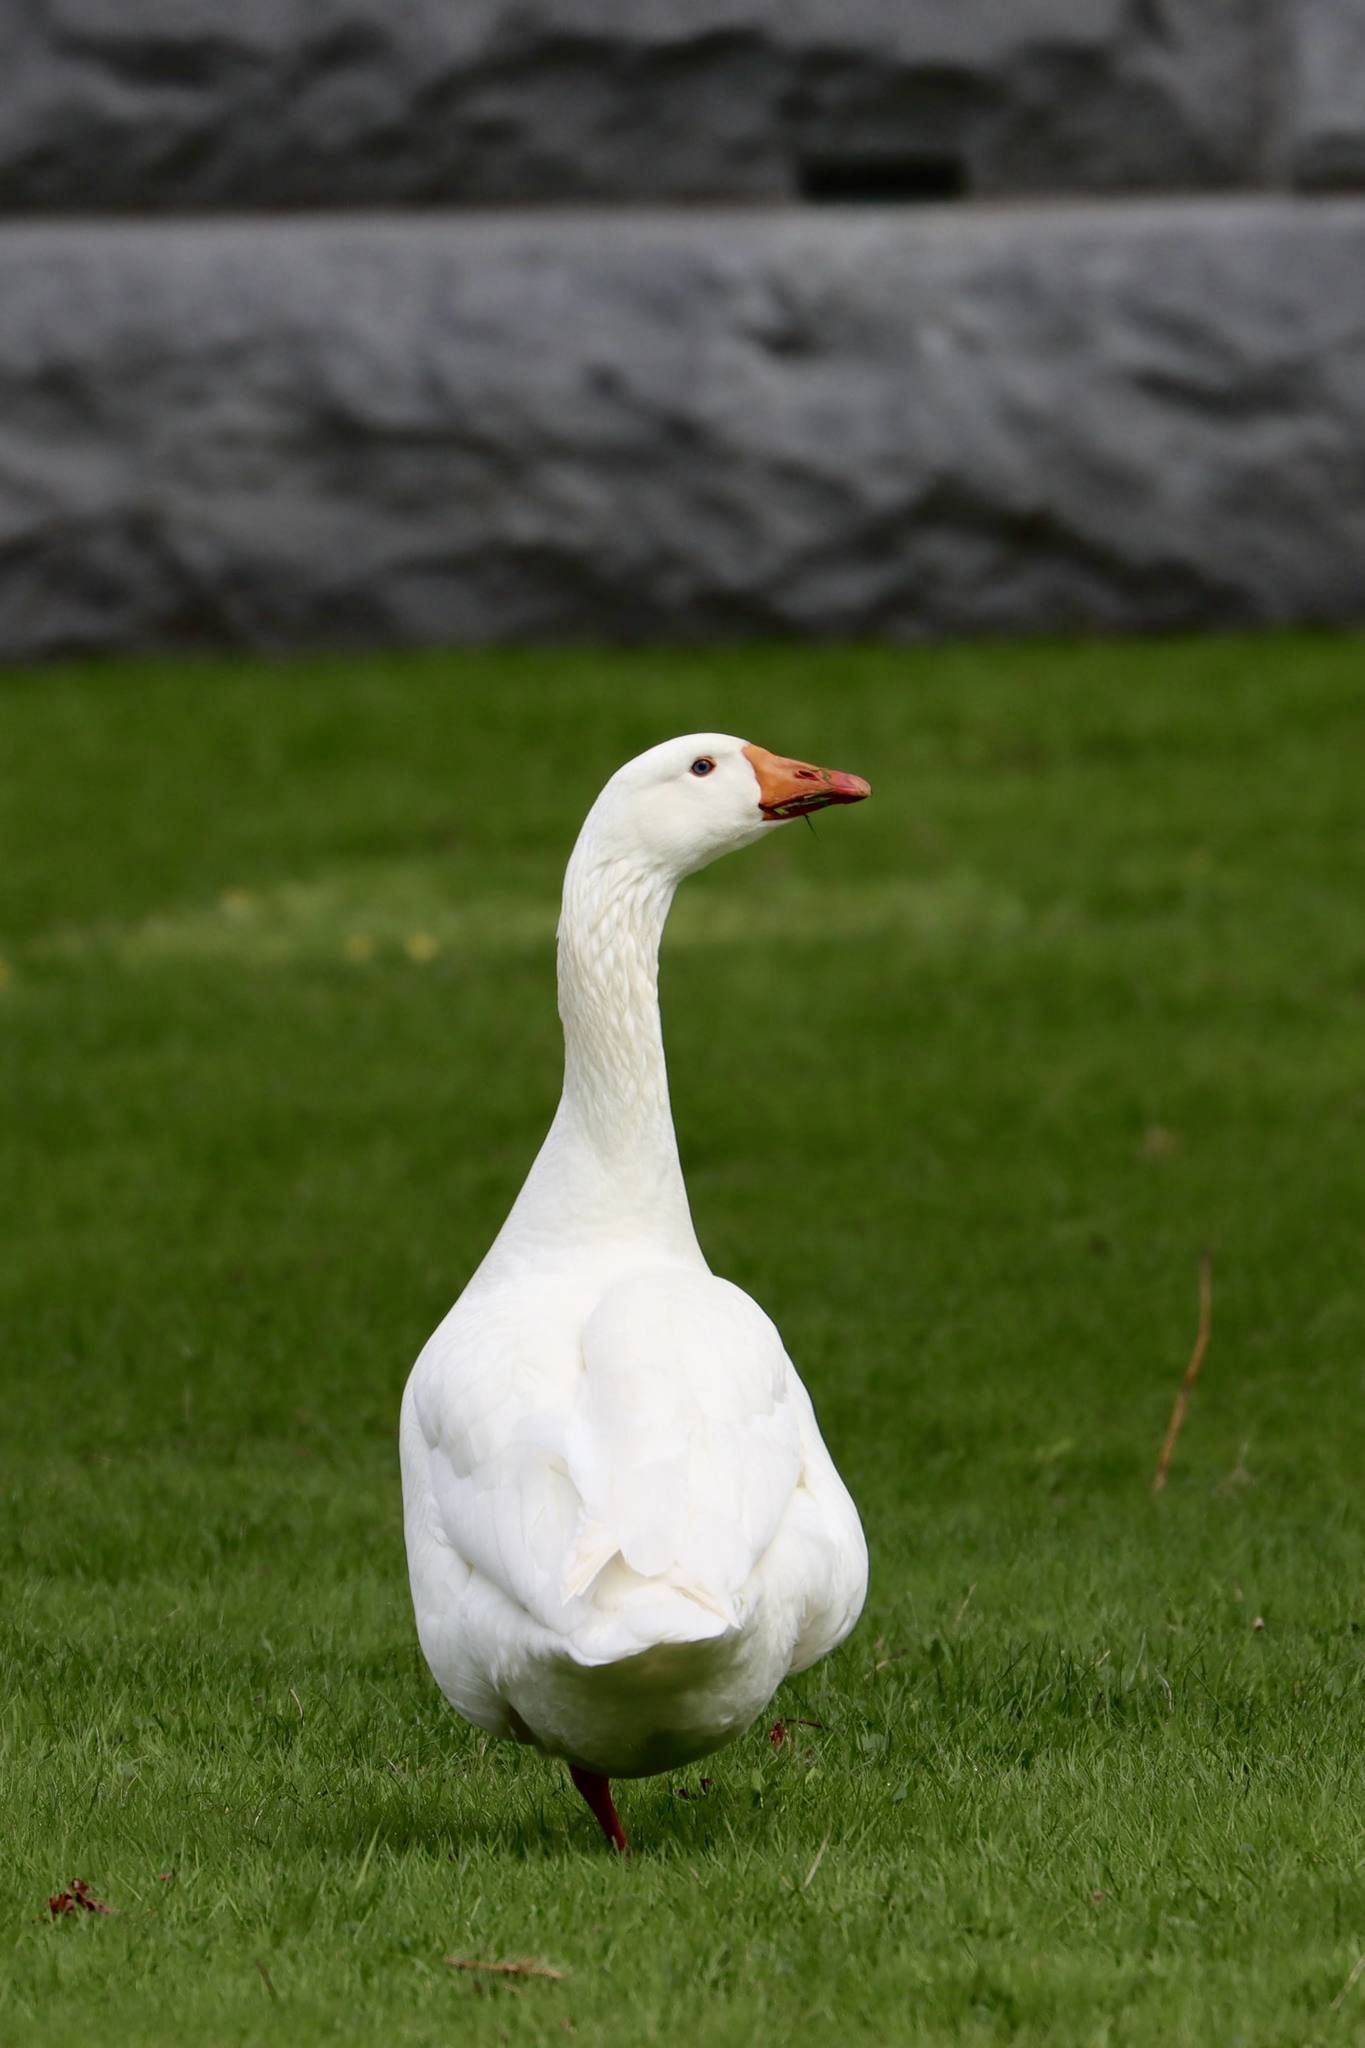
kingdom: Animalia
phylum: Chordata
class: Aves
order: Anseriformes
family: Anatidae
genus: Anser
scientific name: Anser anser
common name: Greylag goose
